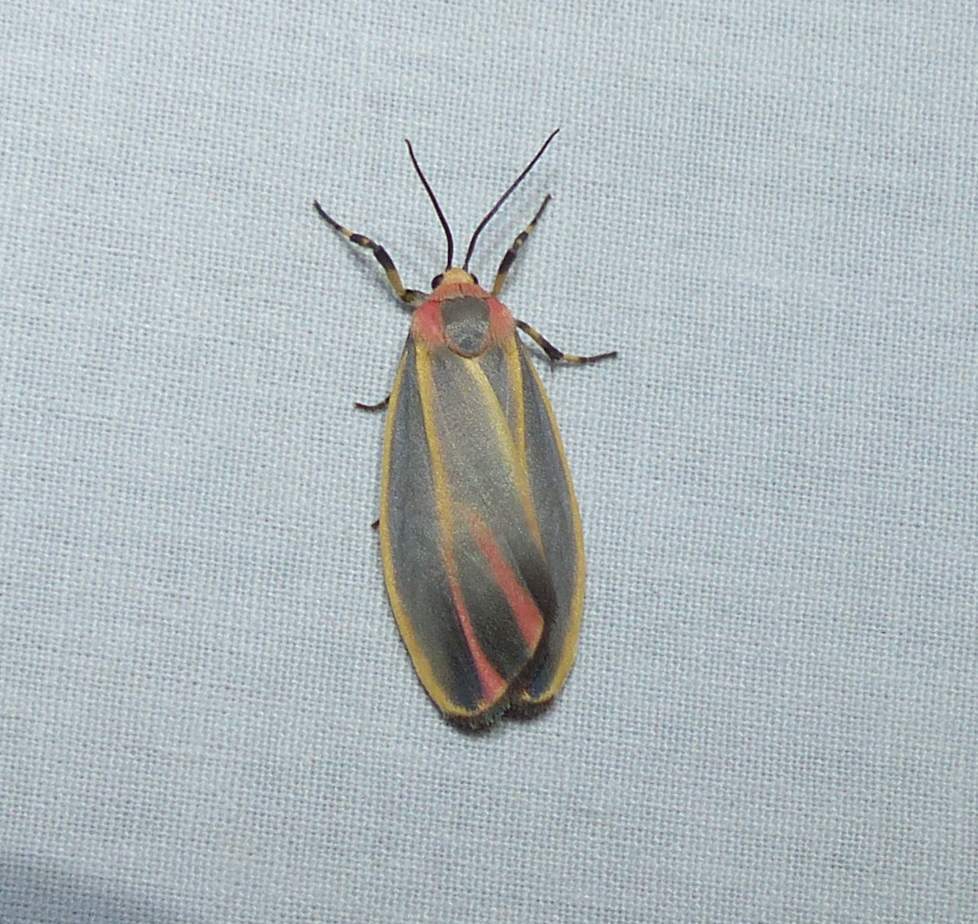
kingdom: Animalia
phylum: Arthropoda
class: Insecta
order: Lepidoptera
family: Erebidae
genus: Hypoprepia
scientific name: Hypoprepia fucosa
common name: Painted lichen moth
